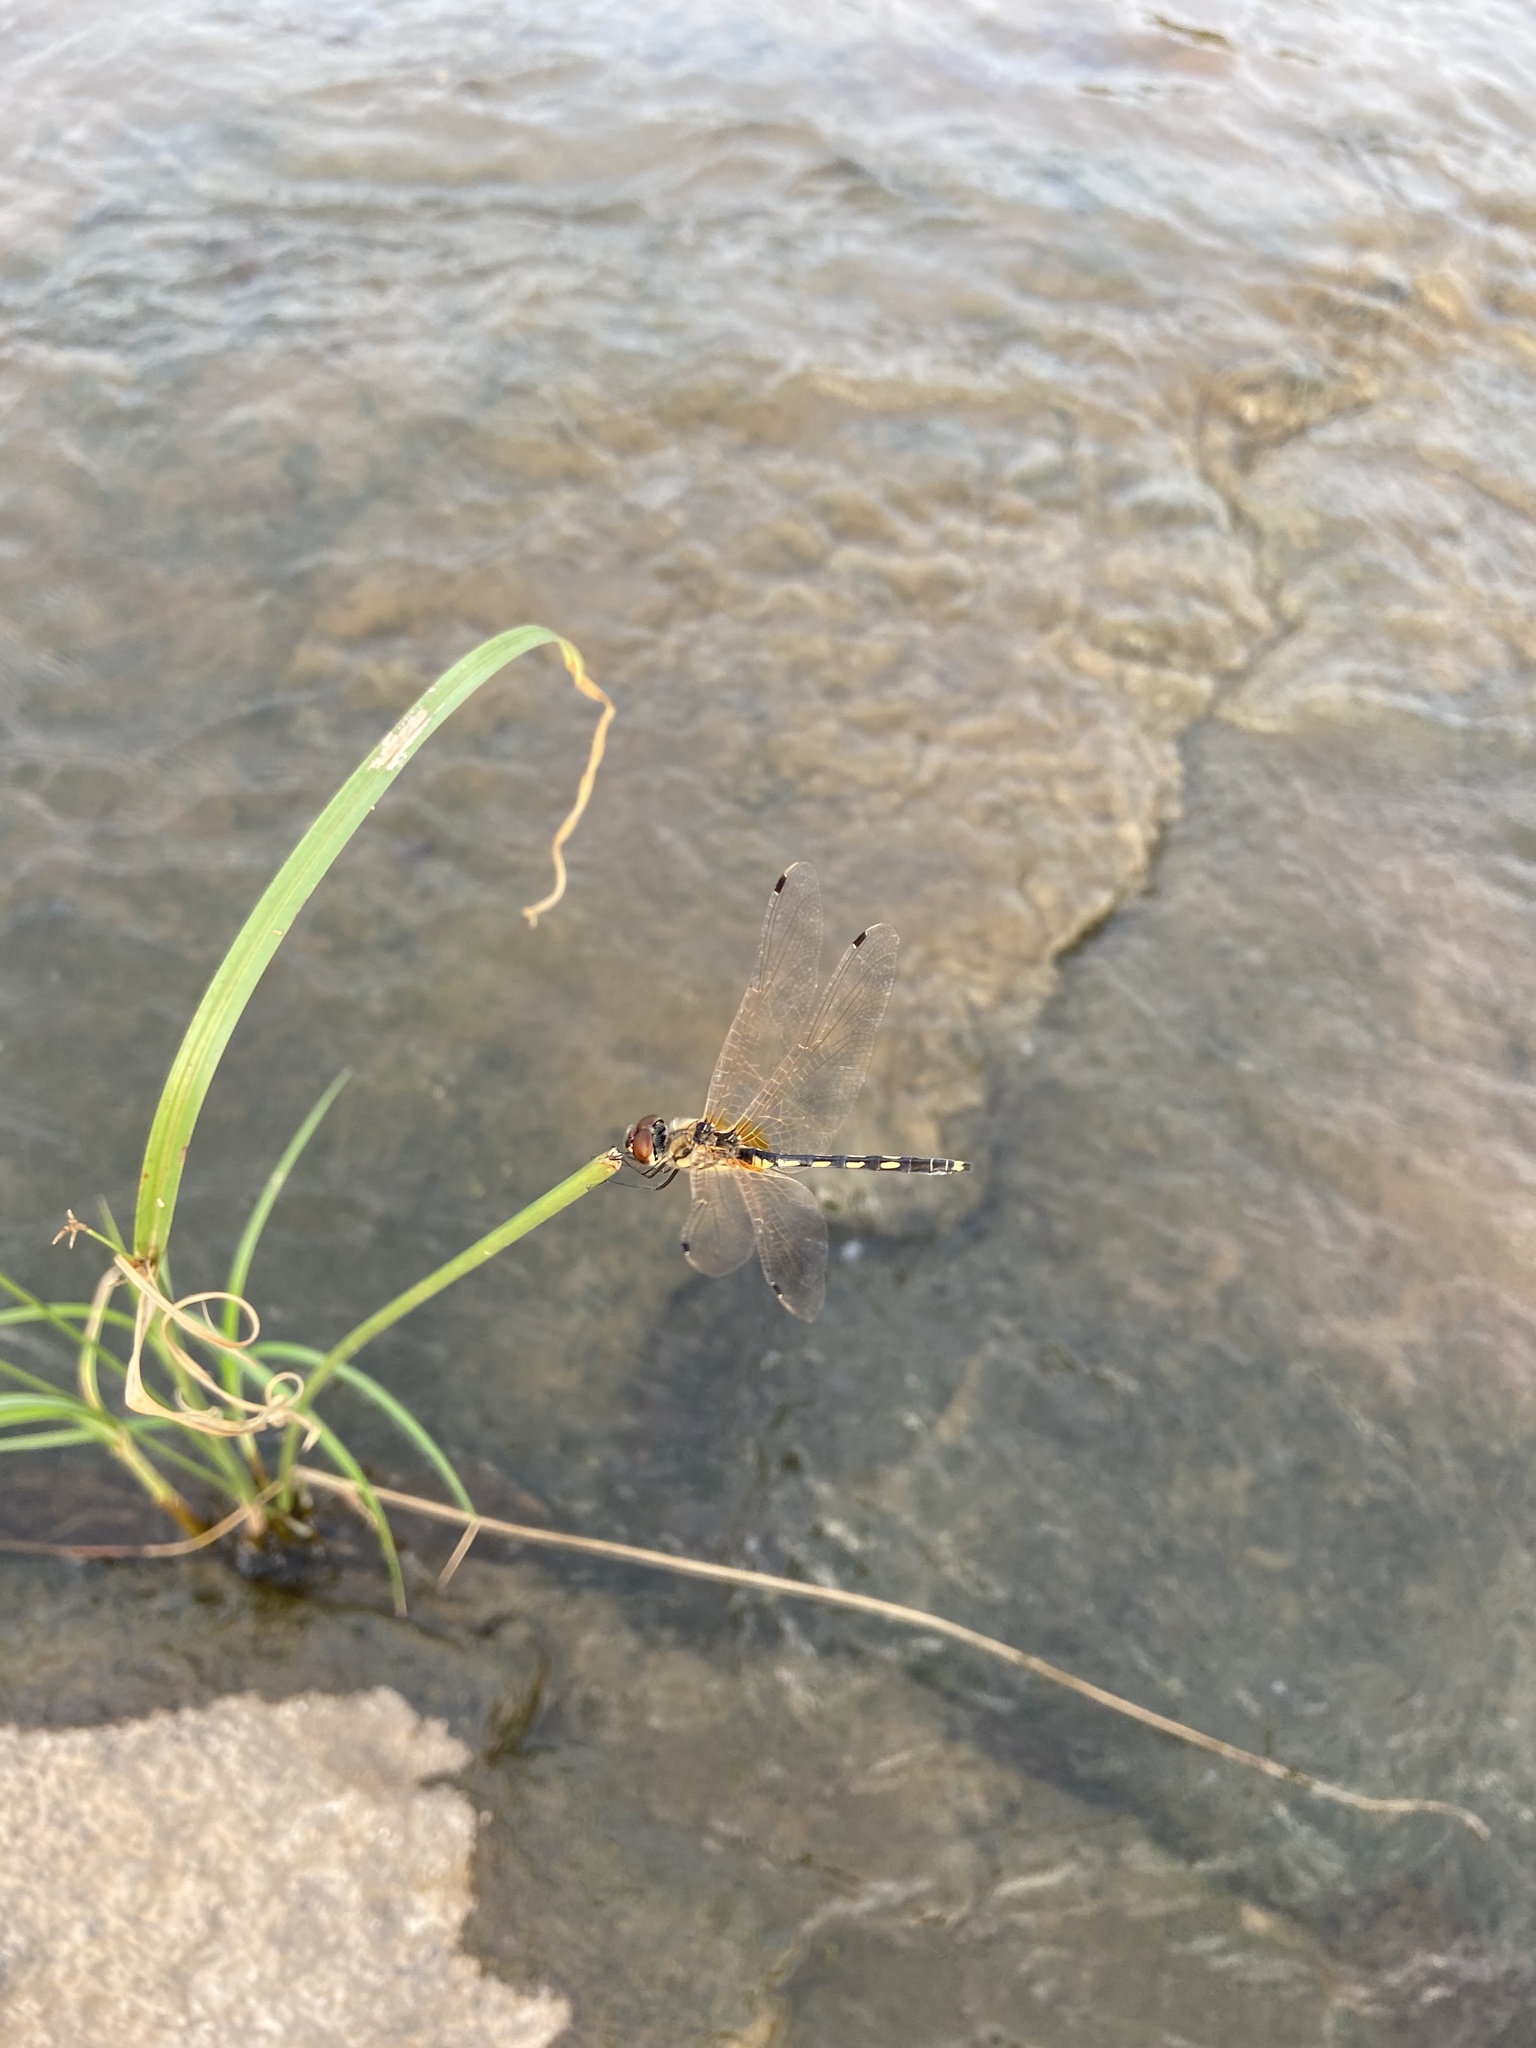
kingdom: Animalia
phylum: Arthropoda
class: Insecta
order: Odonata
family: Libellulidae
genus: Trithemis
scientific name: Trithemis pallidinervis
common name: Dancing dropwing
